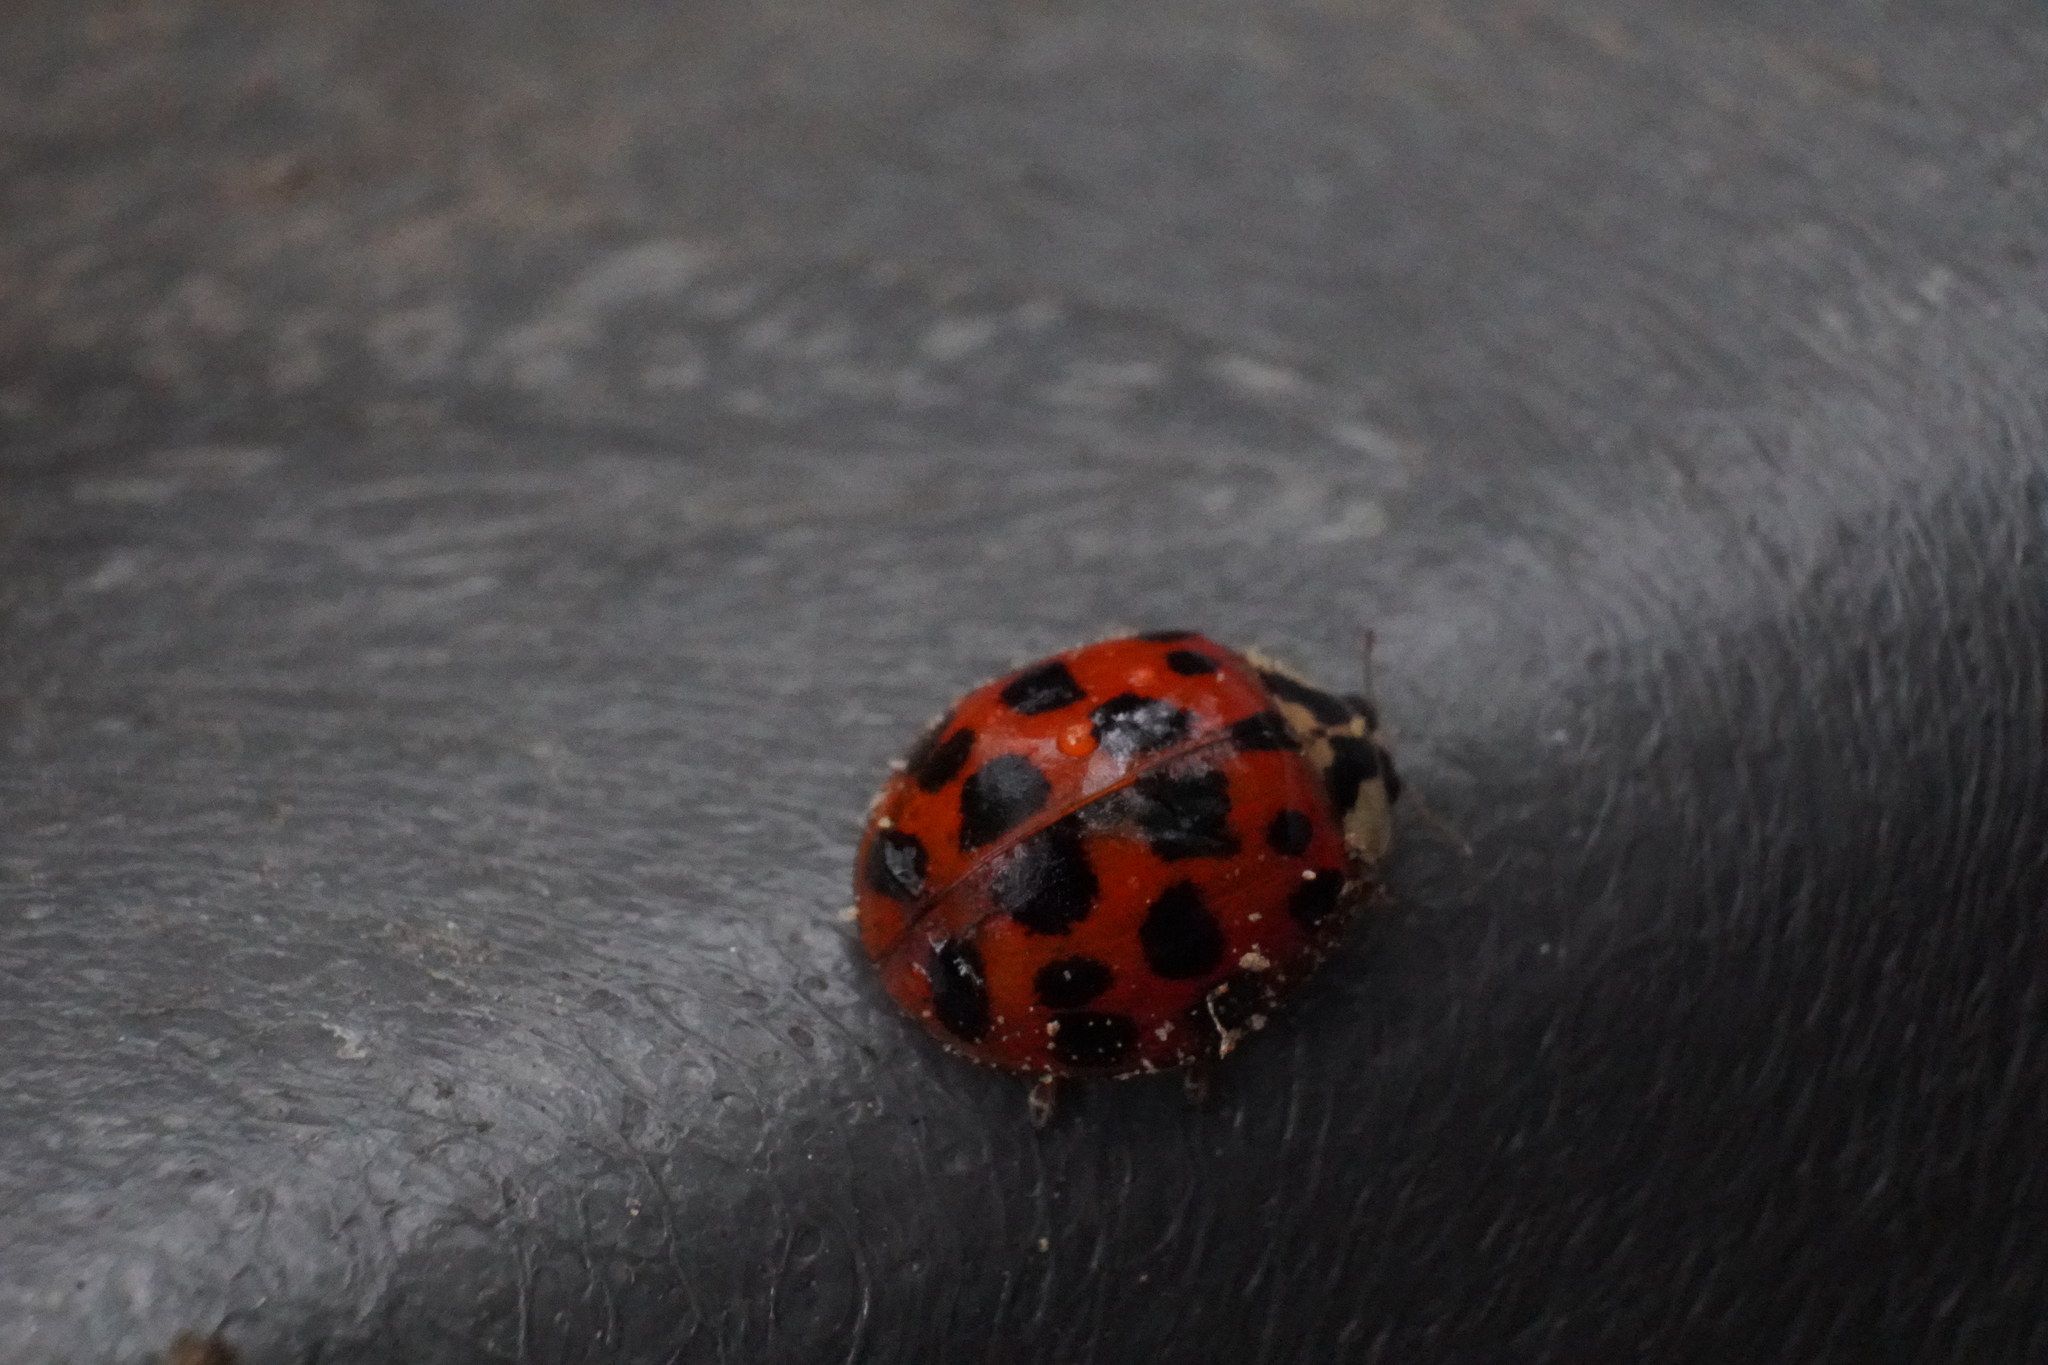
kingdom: Animalia
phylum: Arthropoda
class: Insecta
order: Coleoptera
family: Coccinellidae
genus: Harmonia
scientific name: Harmonia axyridis
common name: Harlequin ladybird
